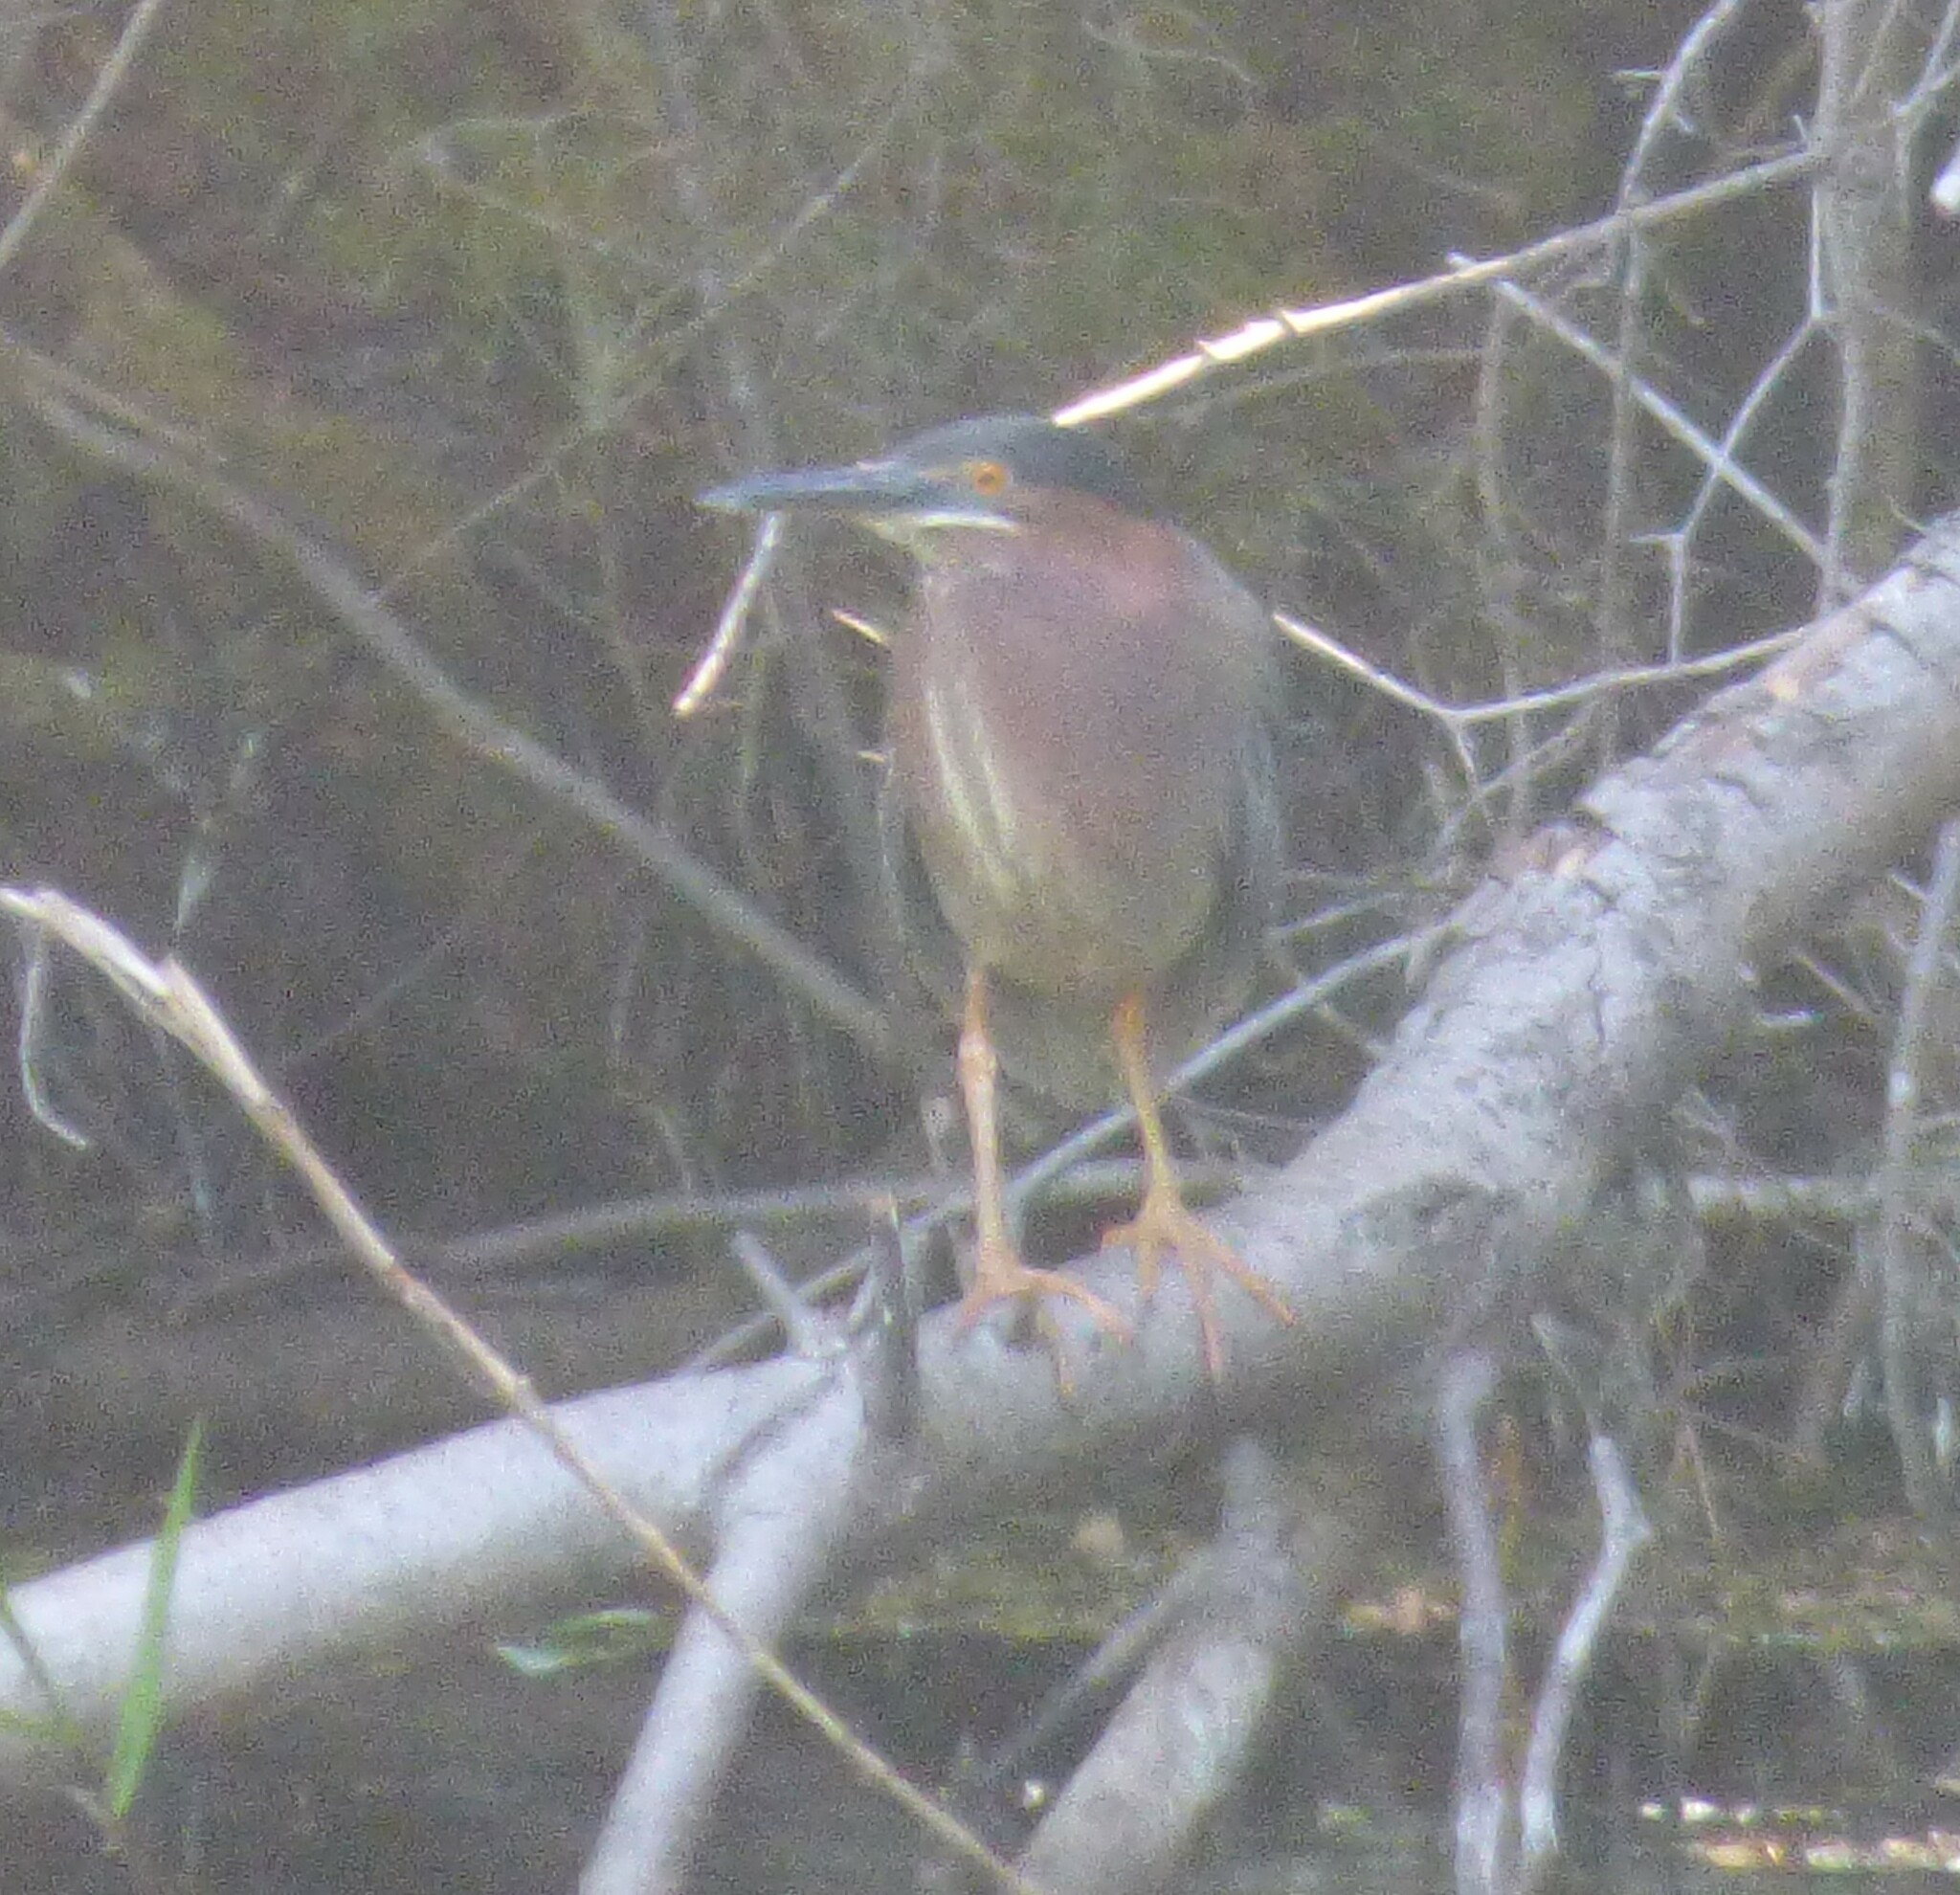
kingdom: Animalia
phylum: Chordata
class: Aves
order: Pelecaniformes
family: Ardeidae
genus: Butorides
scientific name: Butorides virescens
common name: Green heron
